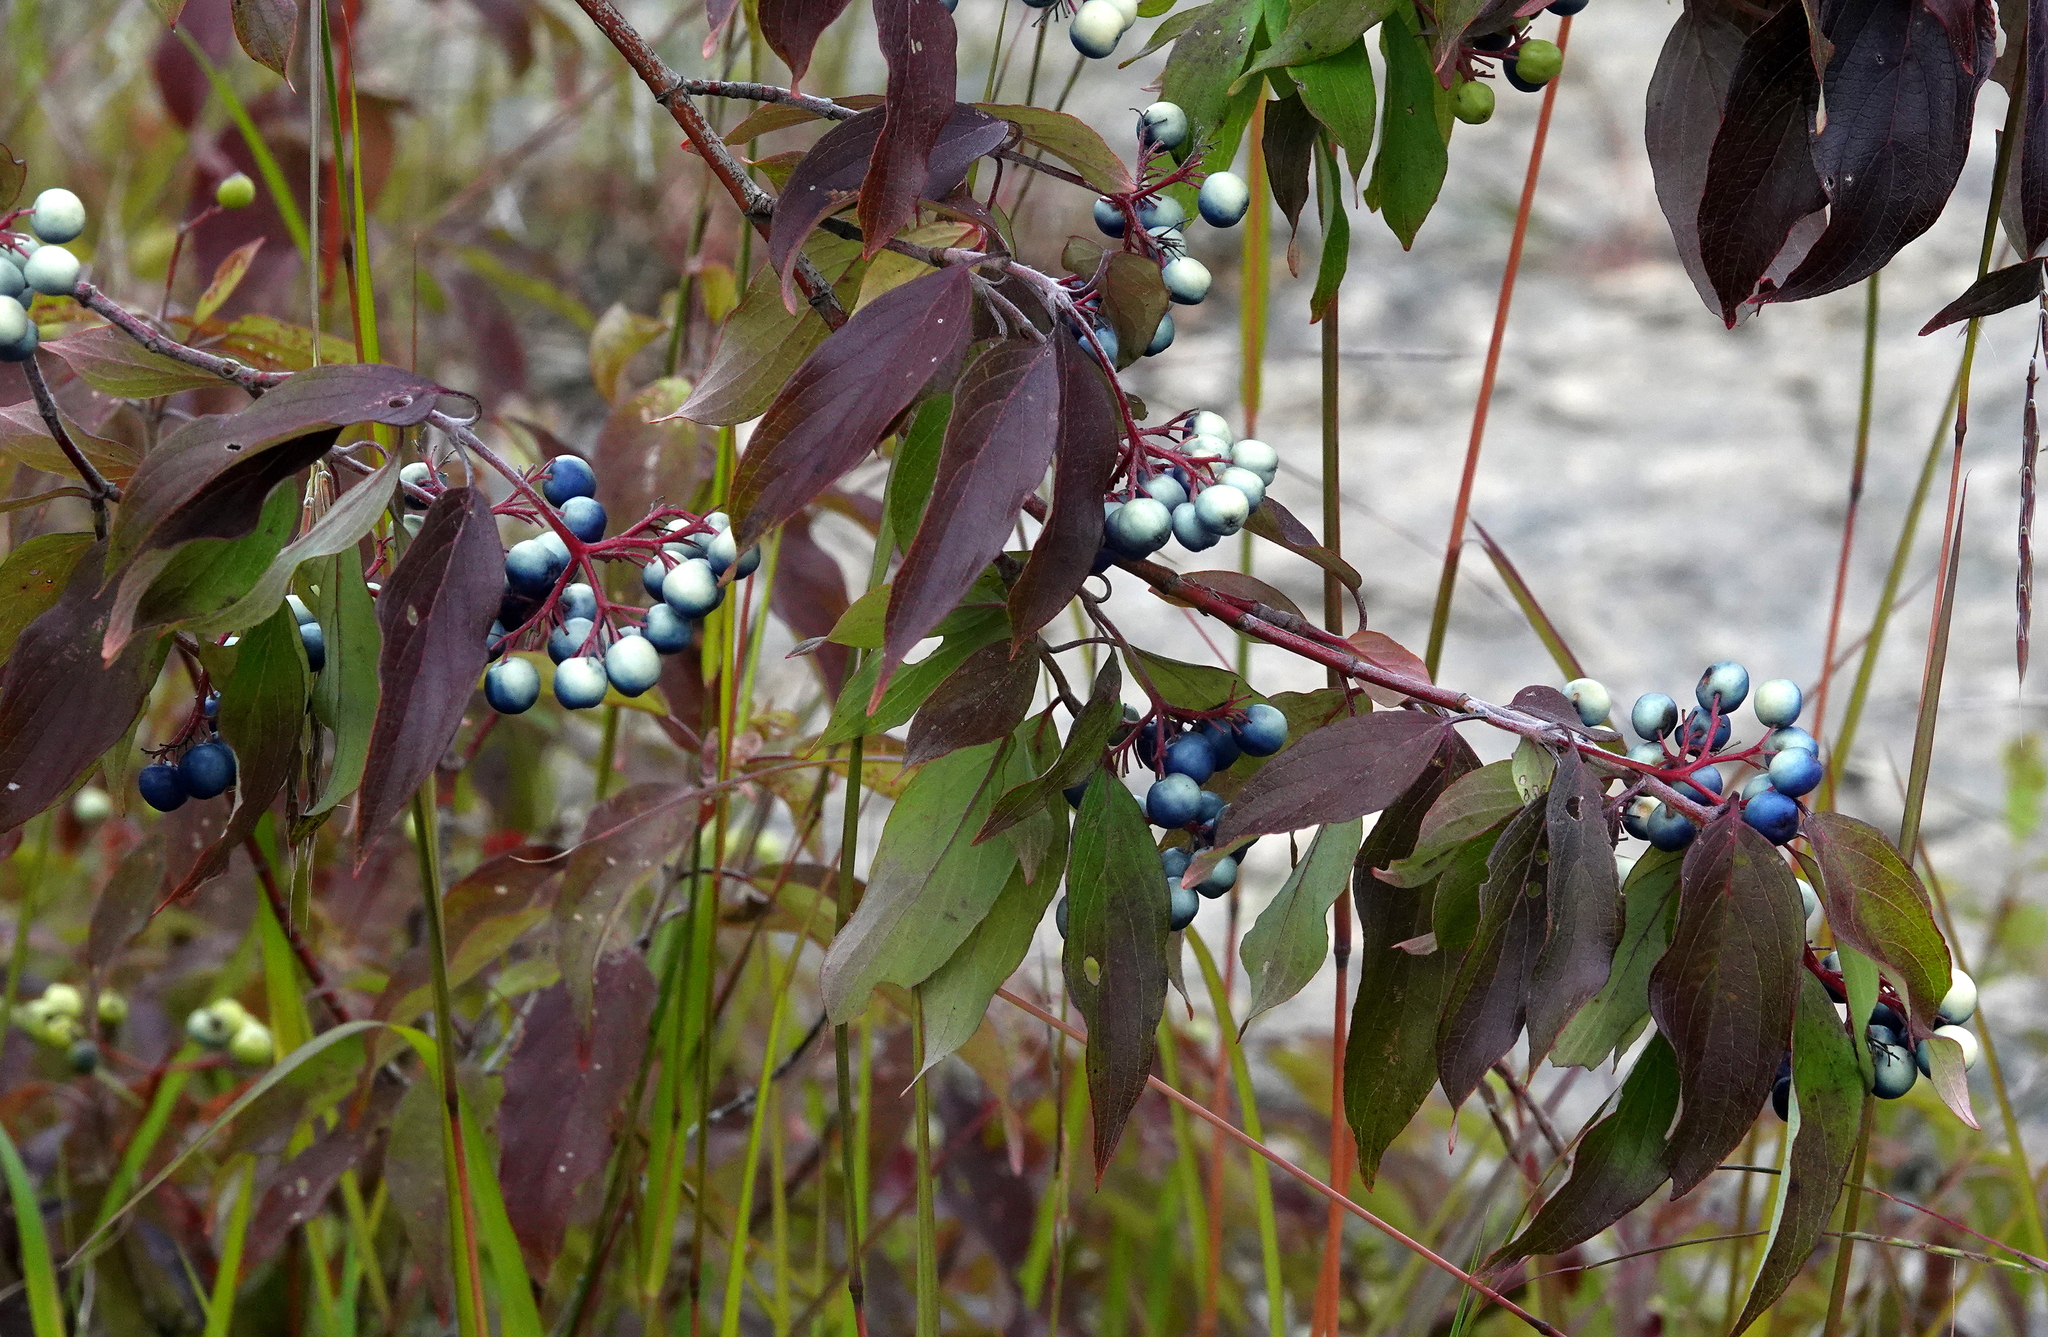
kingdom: Plantae
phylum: Tracheophyta
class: Magnoliopsida
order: Cornales
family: Cornaceae
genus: Cornus
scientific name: Cornus obliqua
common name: Pale dogwood
